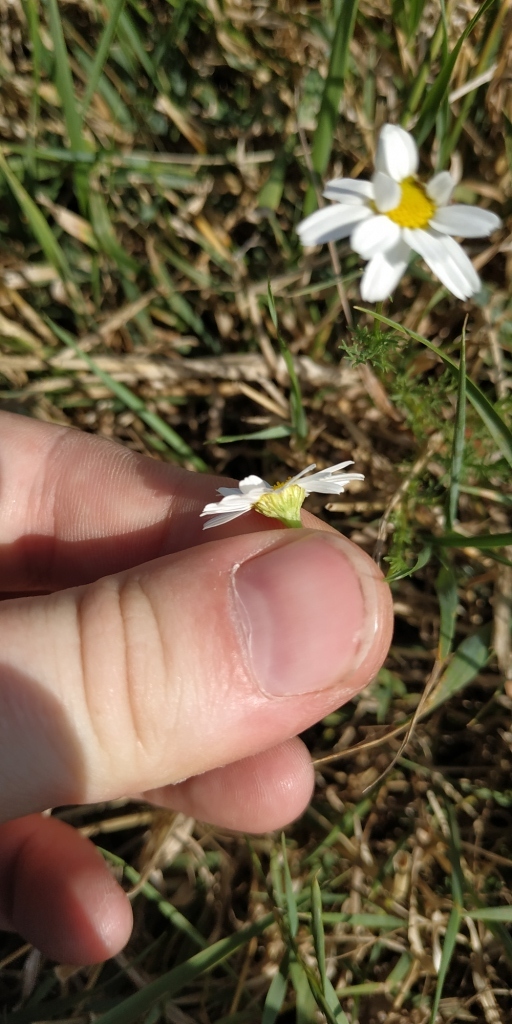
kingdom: Plantae
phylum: Tracheophyta
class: Magnoliopsida
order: Asterales
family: Asteraceae
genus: Tripleurospermum
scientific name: Tripleurospermum inodorum
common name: Scentless mayweed
